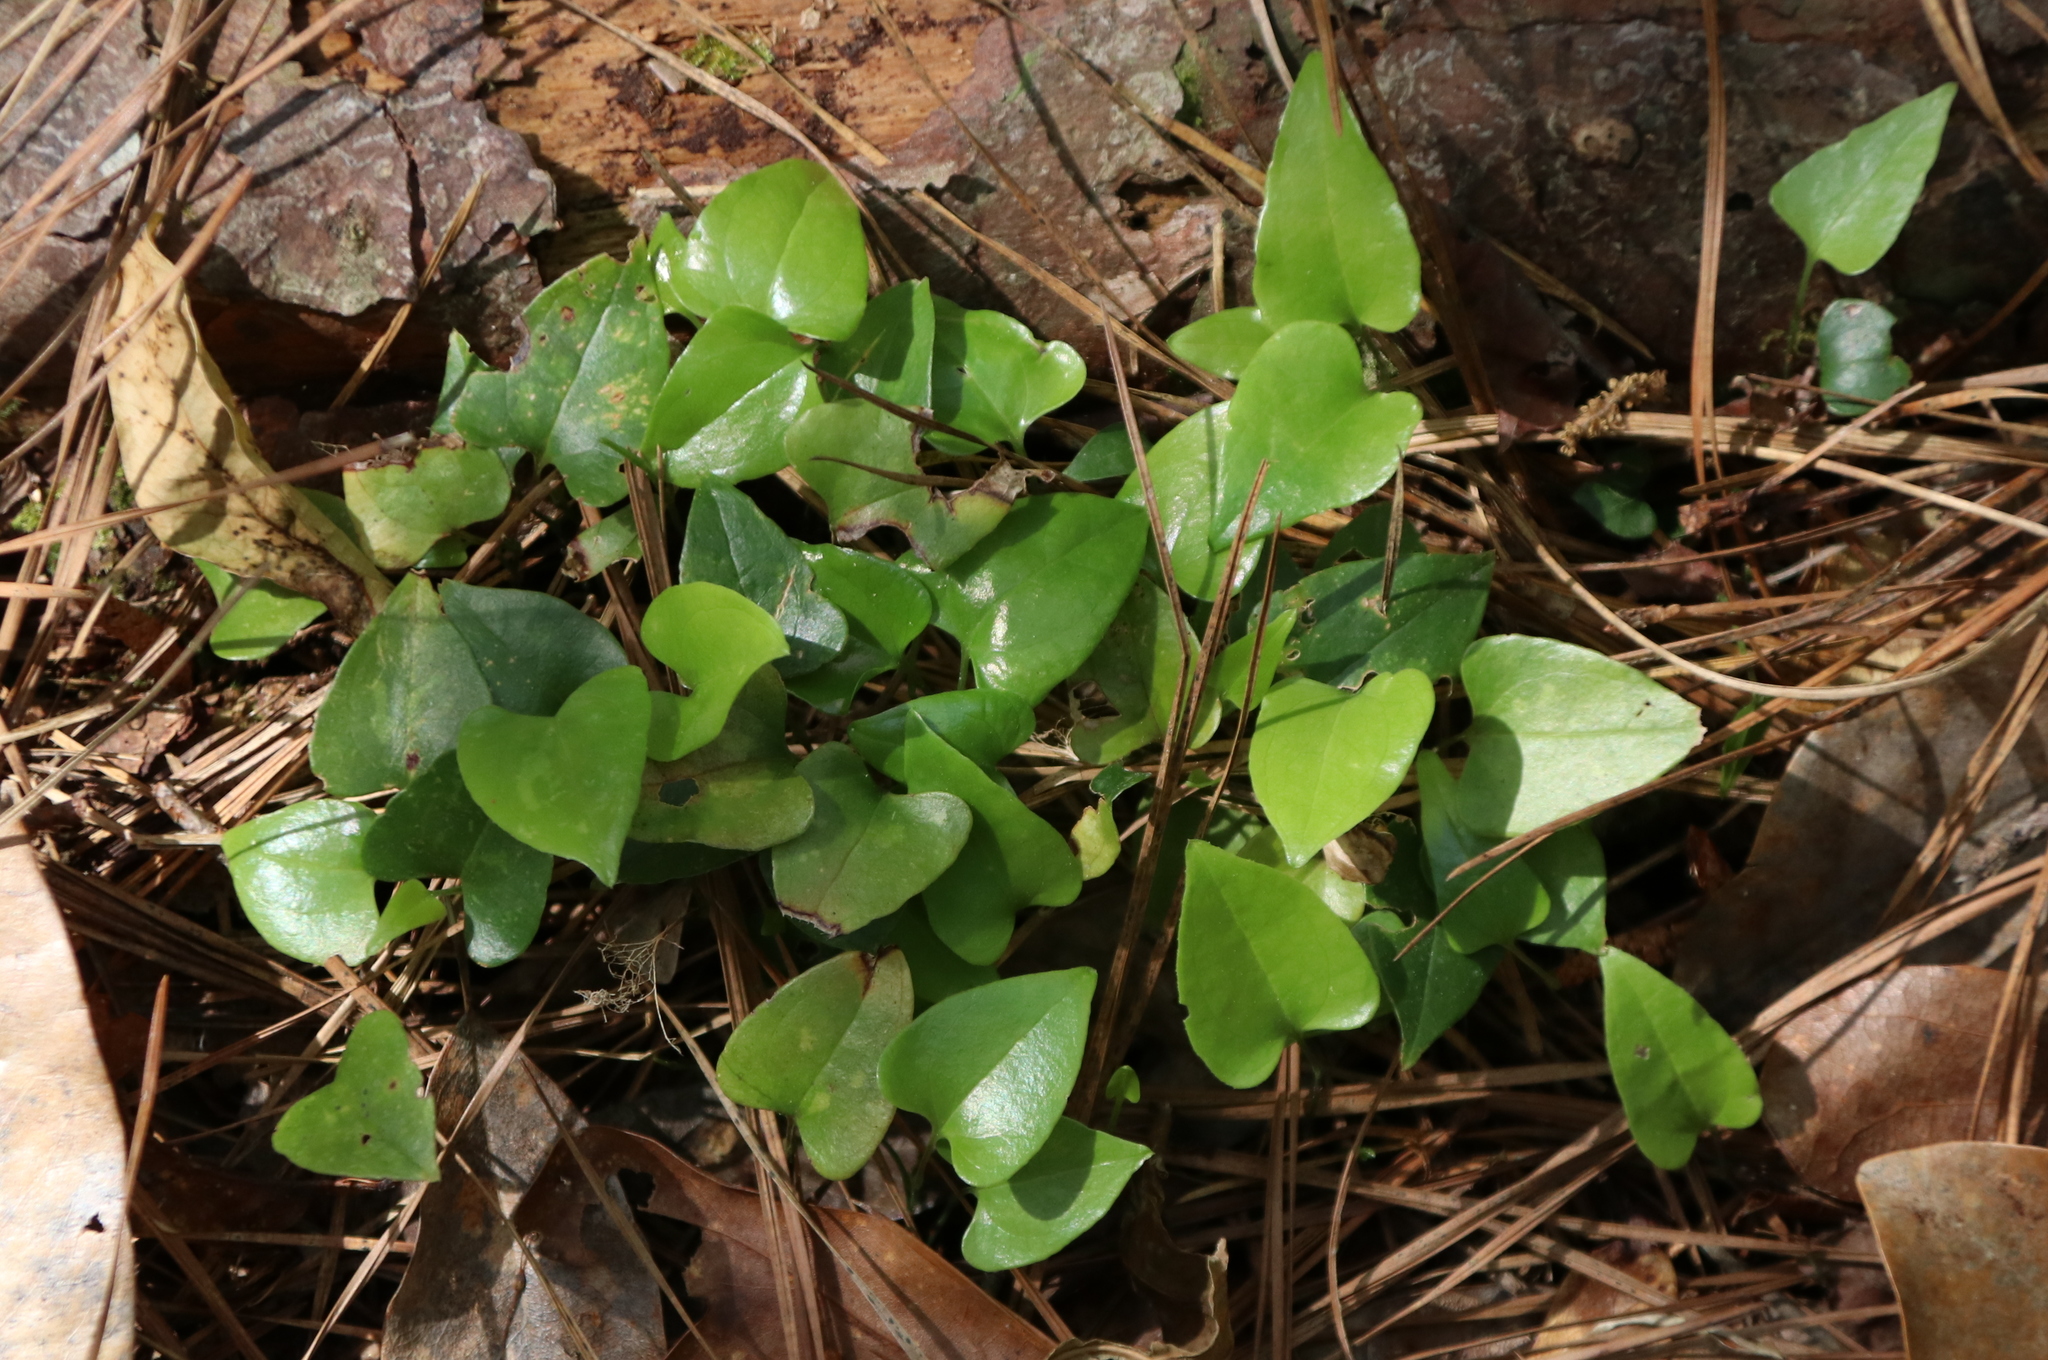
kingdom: Plantae
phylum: Tracheophyta
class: Liliopsida
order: Liliales
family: Smilacaceae
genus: Smilax
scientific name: Smilax bona-nox
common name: Catbrier
